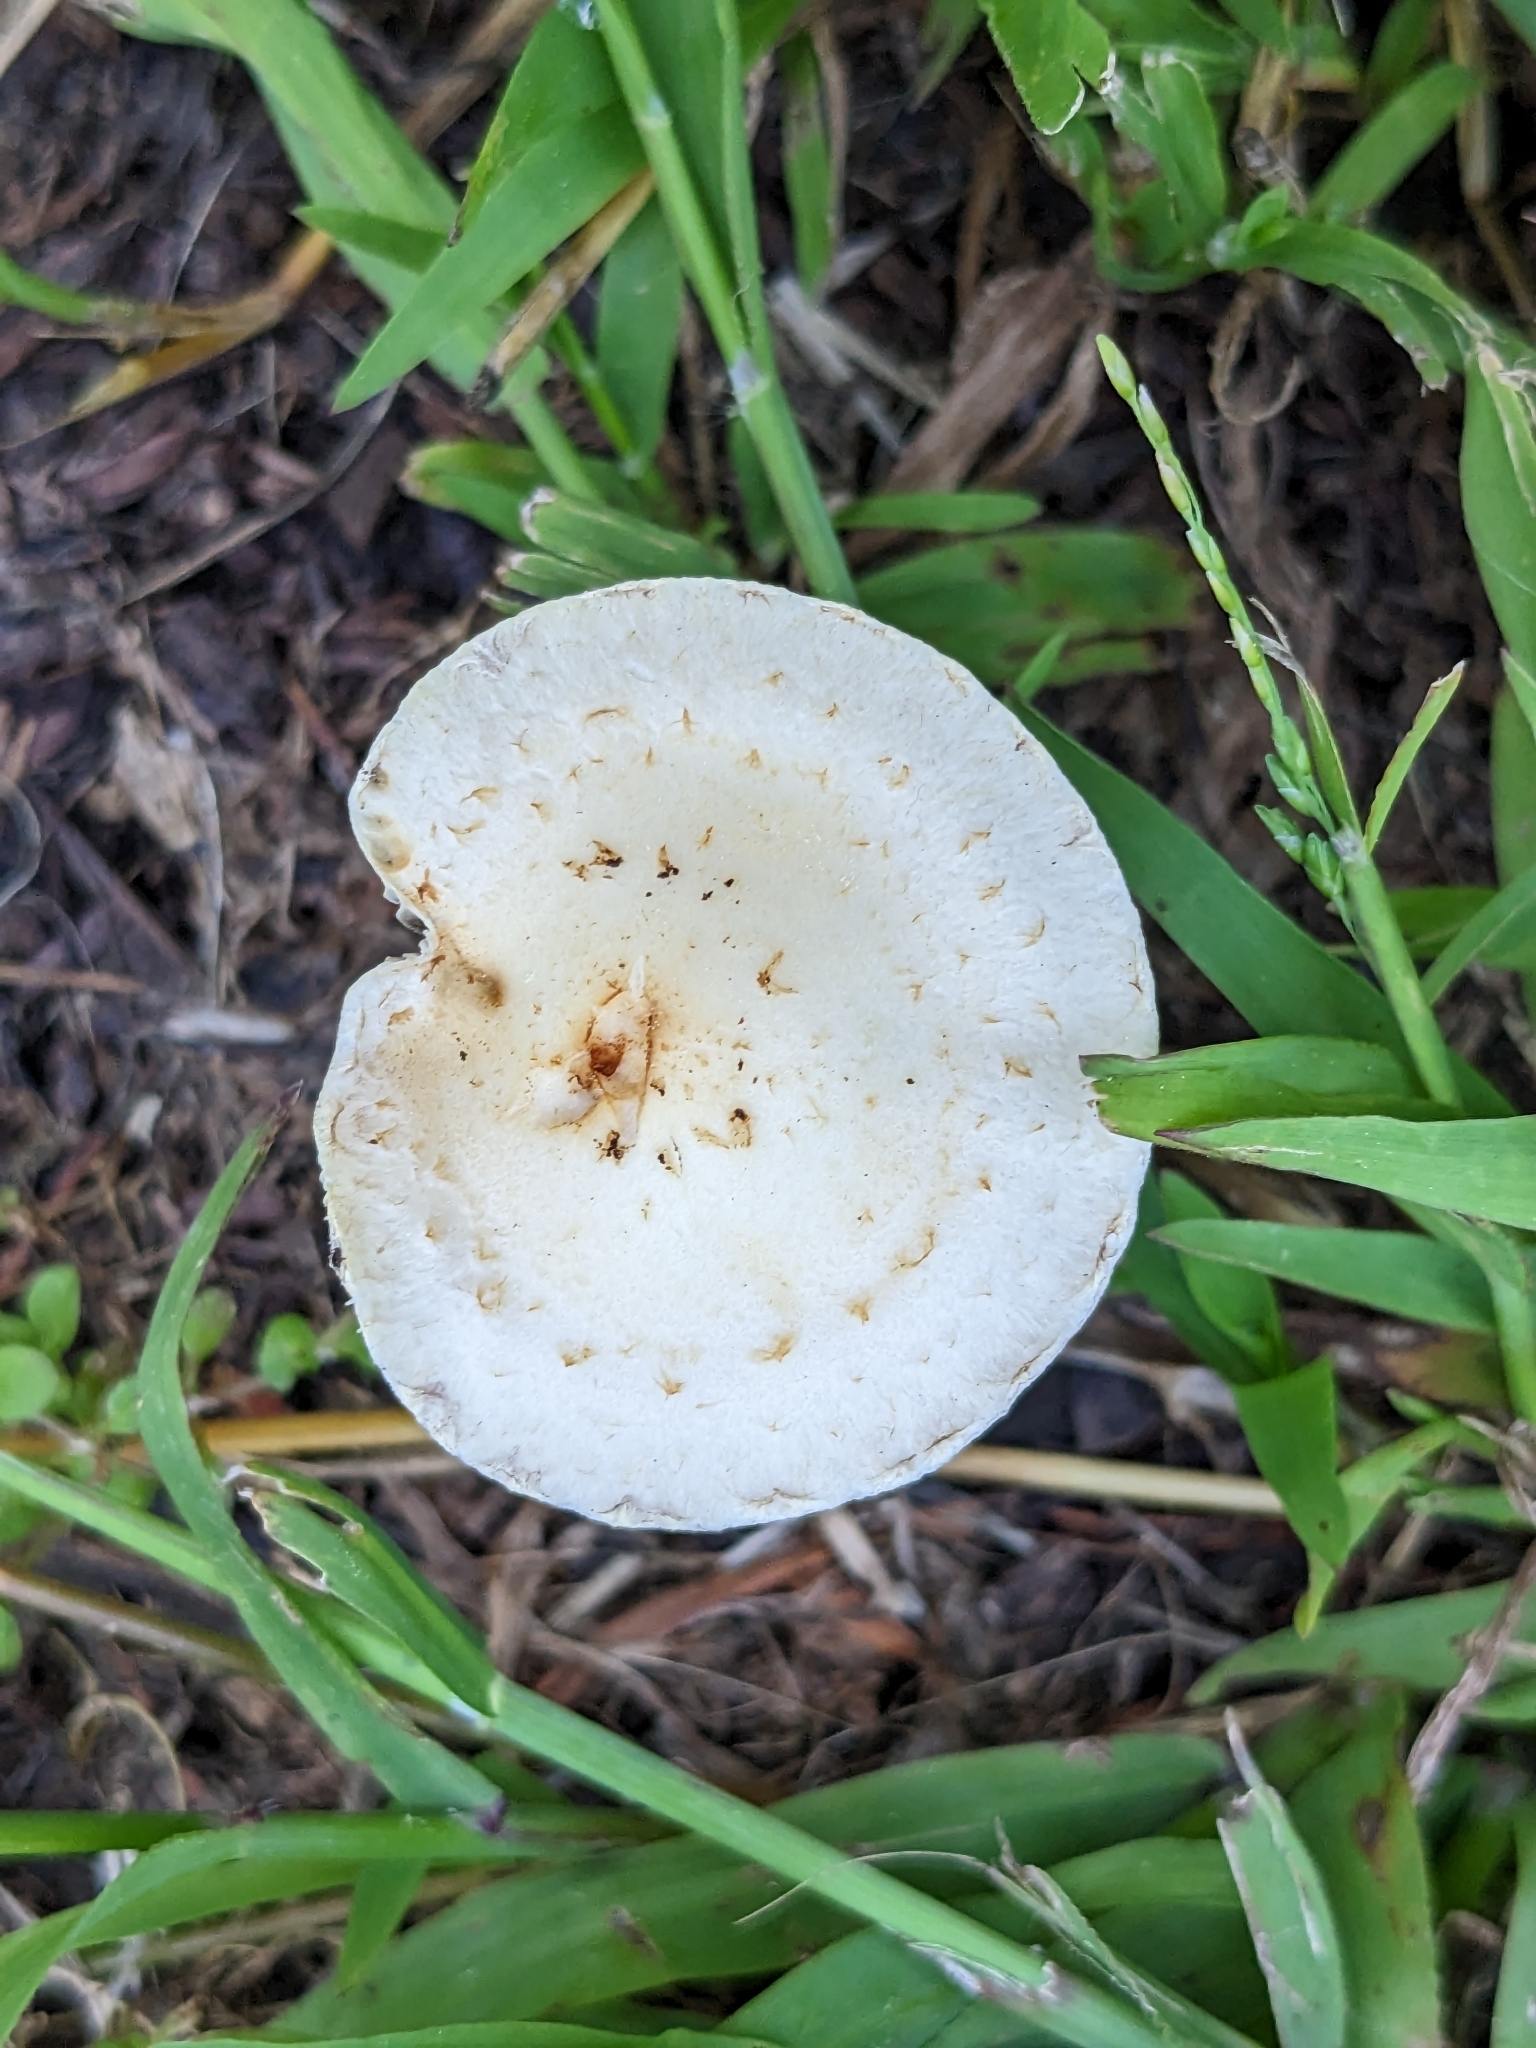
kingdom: Fungi
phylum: Basidiomycota
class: Agaricomycetes
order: Agaricales
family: Strophariaceae
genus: Leratiomyces
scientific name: Leratiomyces percevalii
